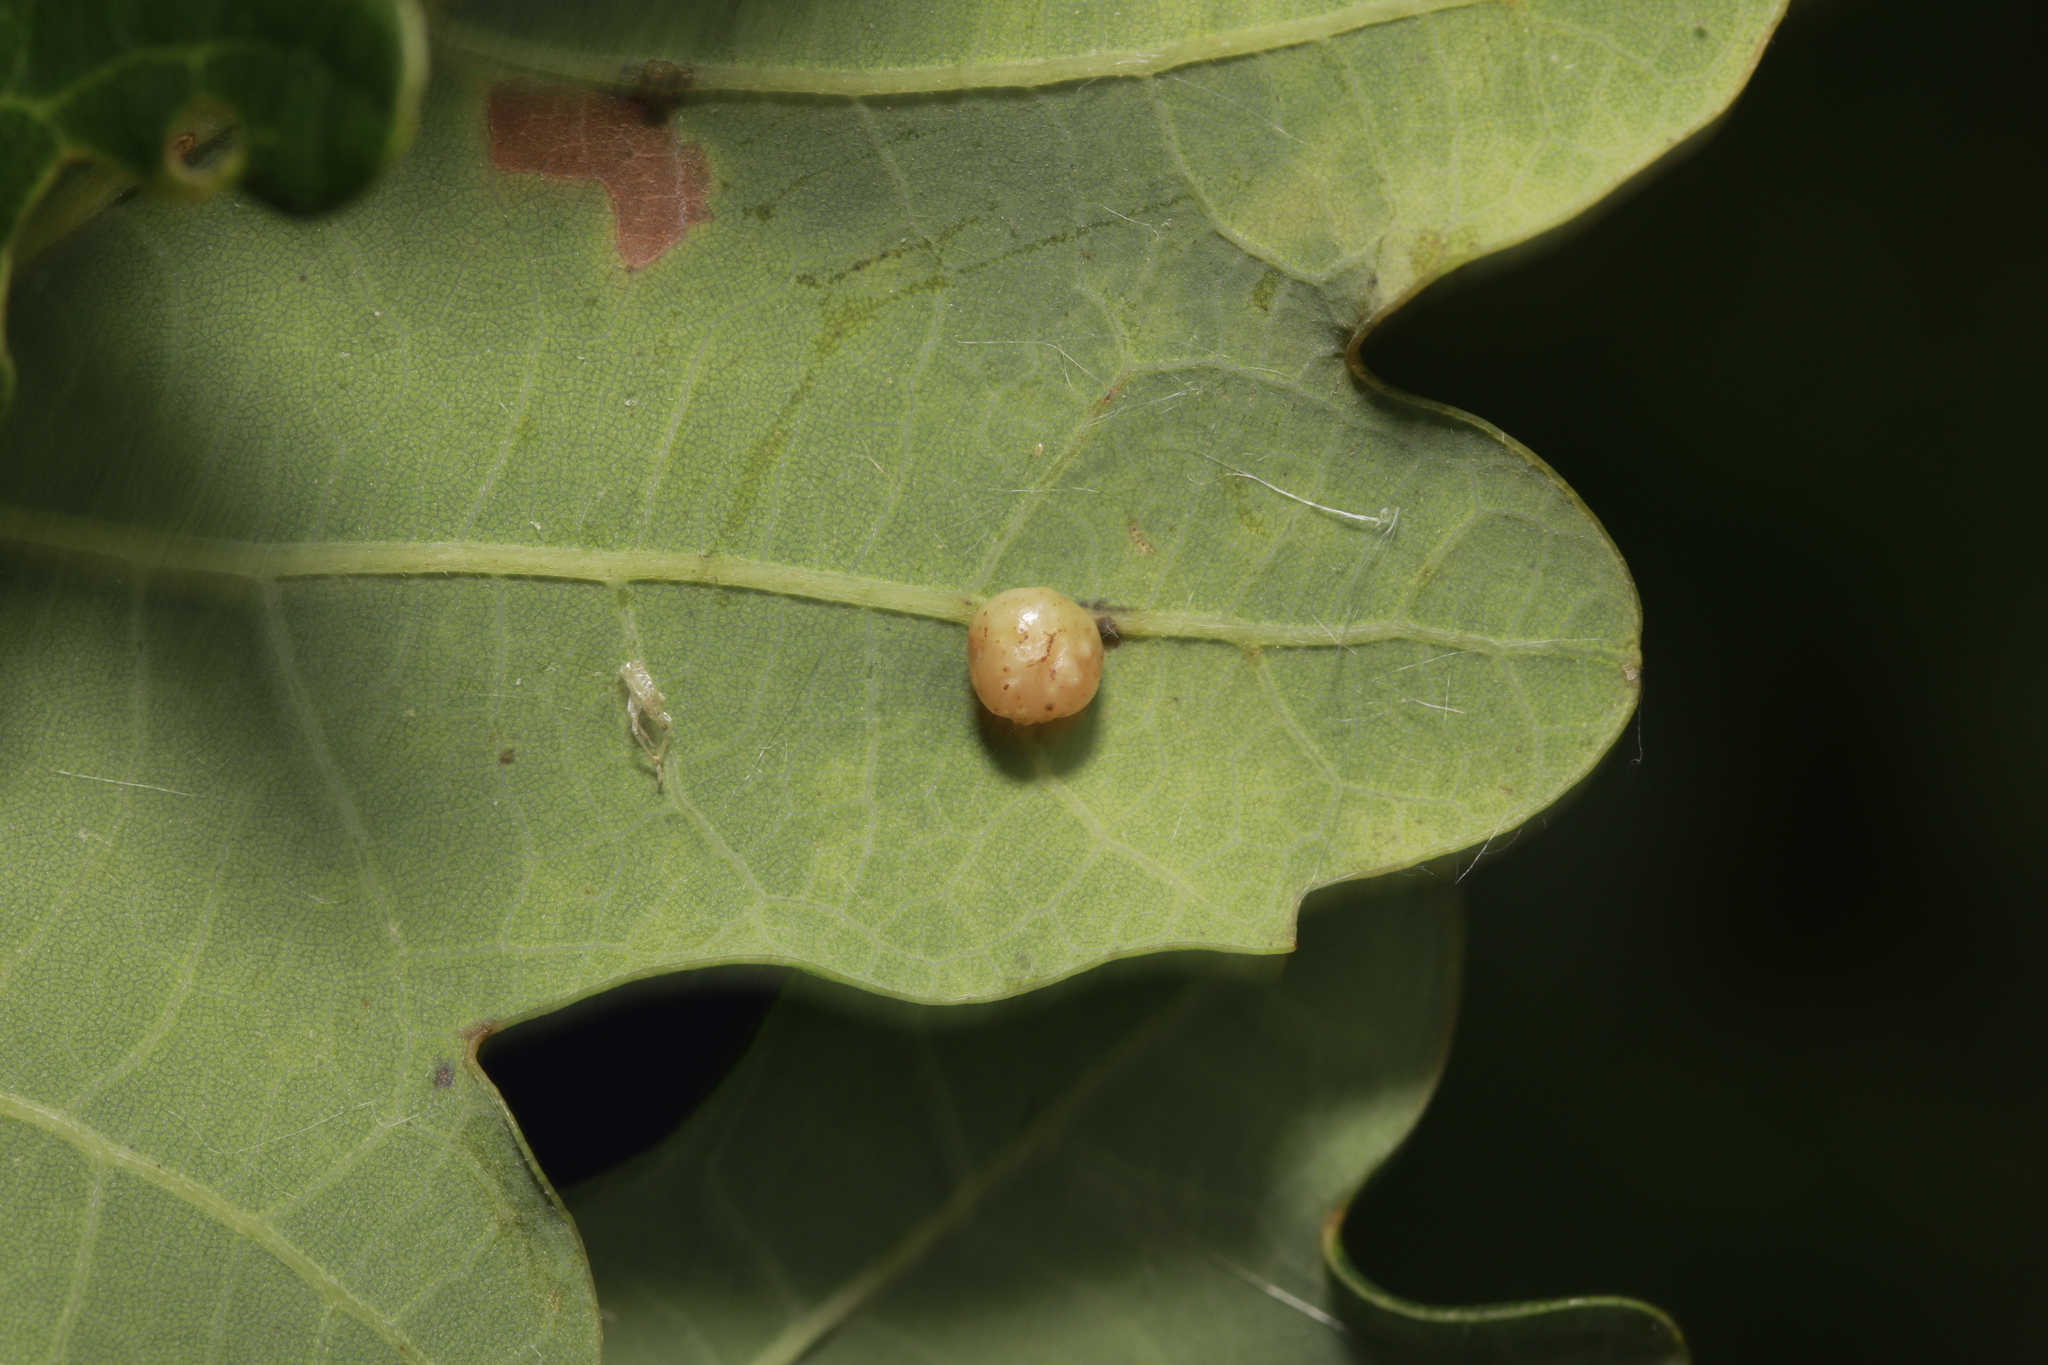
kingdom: Animalia
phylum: Arthropoda
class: Insecta
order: Hymenoptera
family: Cynipidae
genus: Cynips
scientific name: Cynips quercusfolii
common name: Cherry gall
